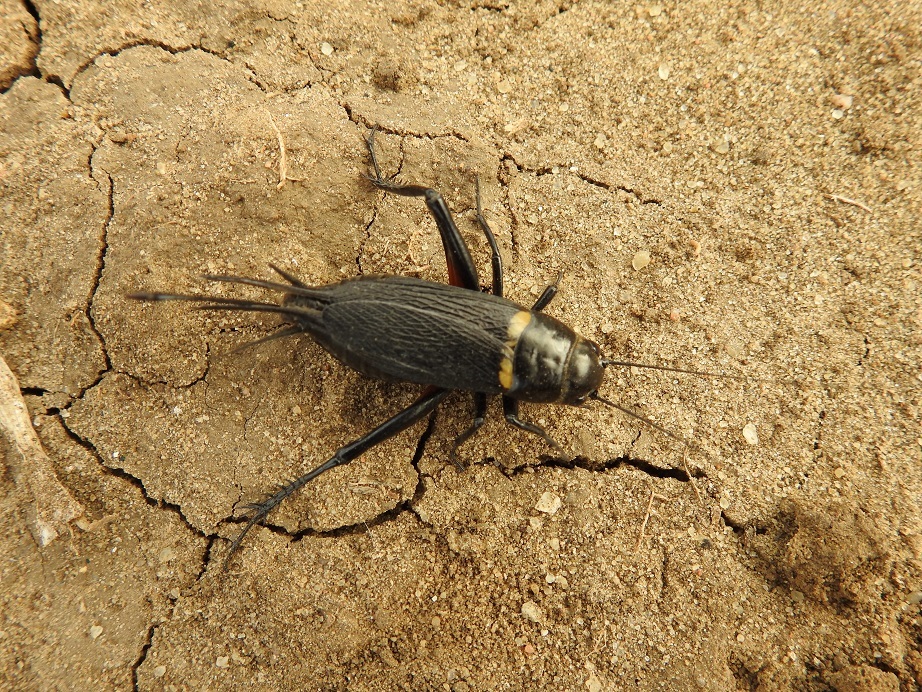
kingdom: Animalia
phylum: Arthropoda
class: Insecta
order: Orthoptera
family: Gryllidae
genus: Gryllus
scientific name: Gryllus bimaculatus
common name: Two-spotted cricket
